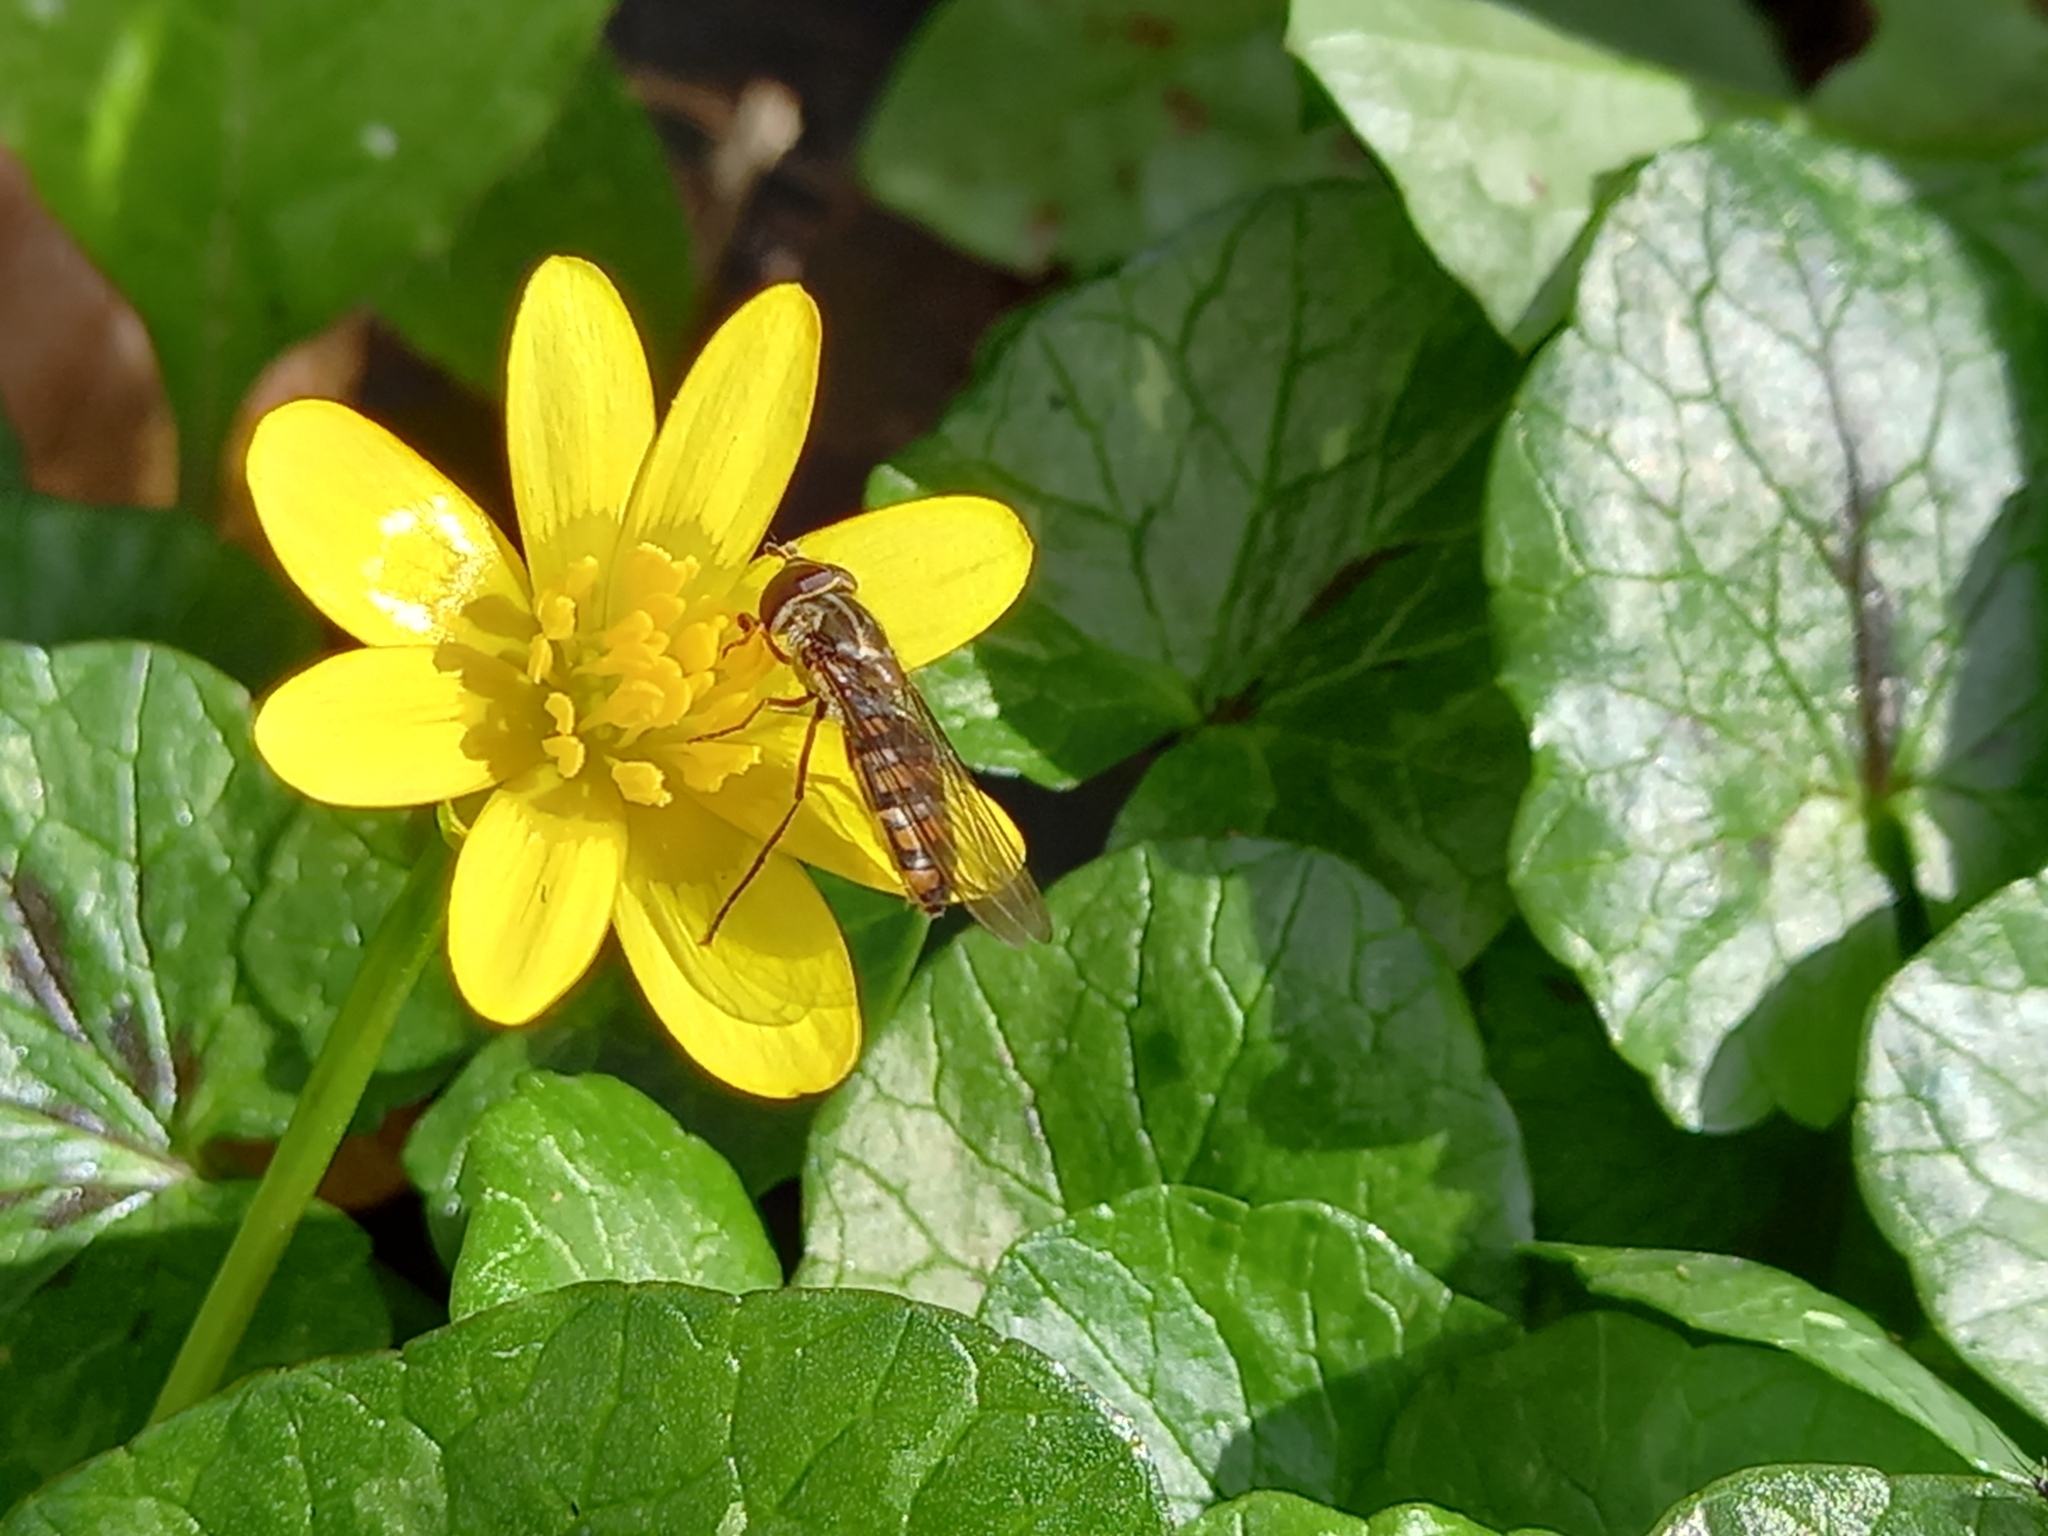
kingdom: Animalia
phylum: Arthropoda
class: Insecta
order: Diptera
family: Syrphidae
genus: Episyrphus
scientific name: Episyrphus balteatus
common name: Marmalade hoverfly
